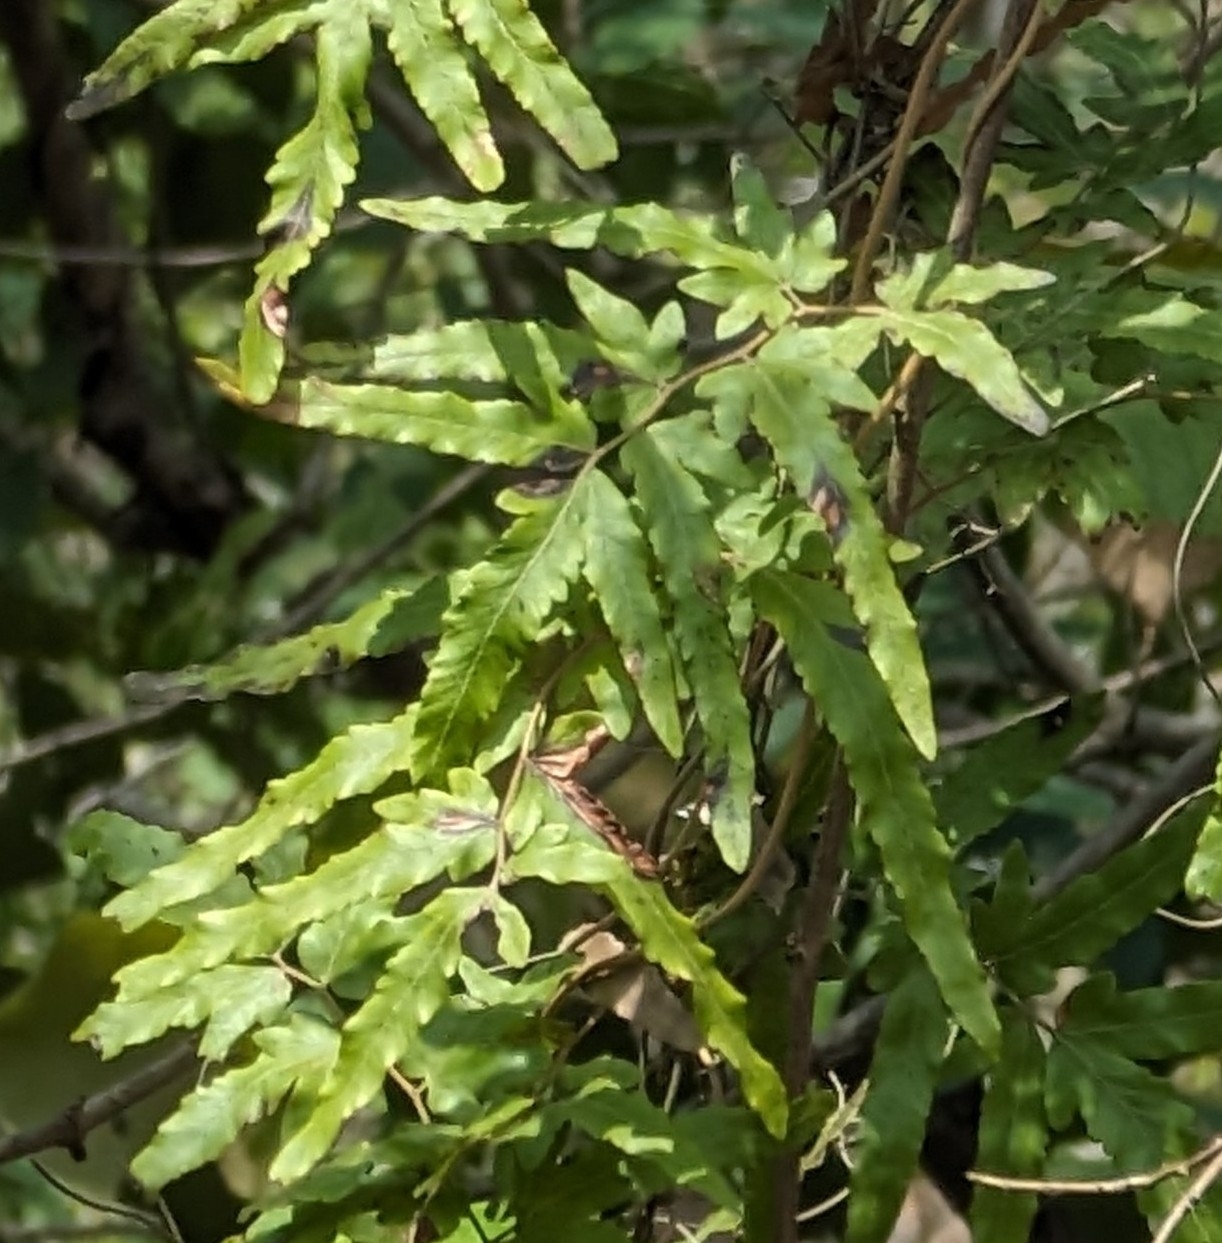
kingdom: Plantae
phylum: Tracheophyta
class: Polypodiopsida
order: Schizaeales
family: Lygodiaceae
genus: Lygodium
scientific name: Lygodium venustum
